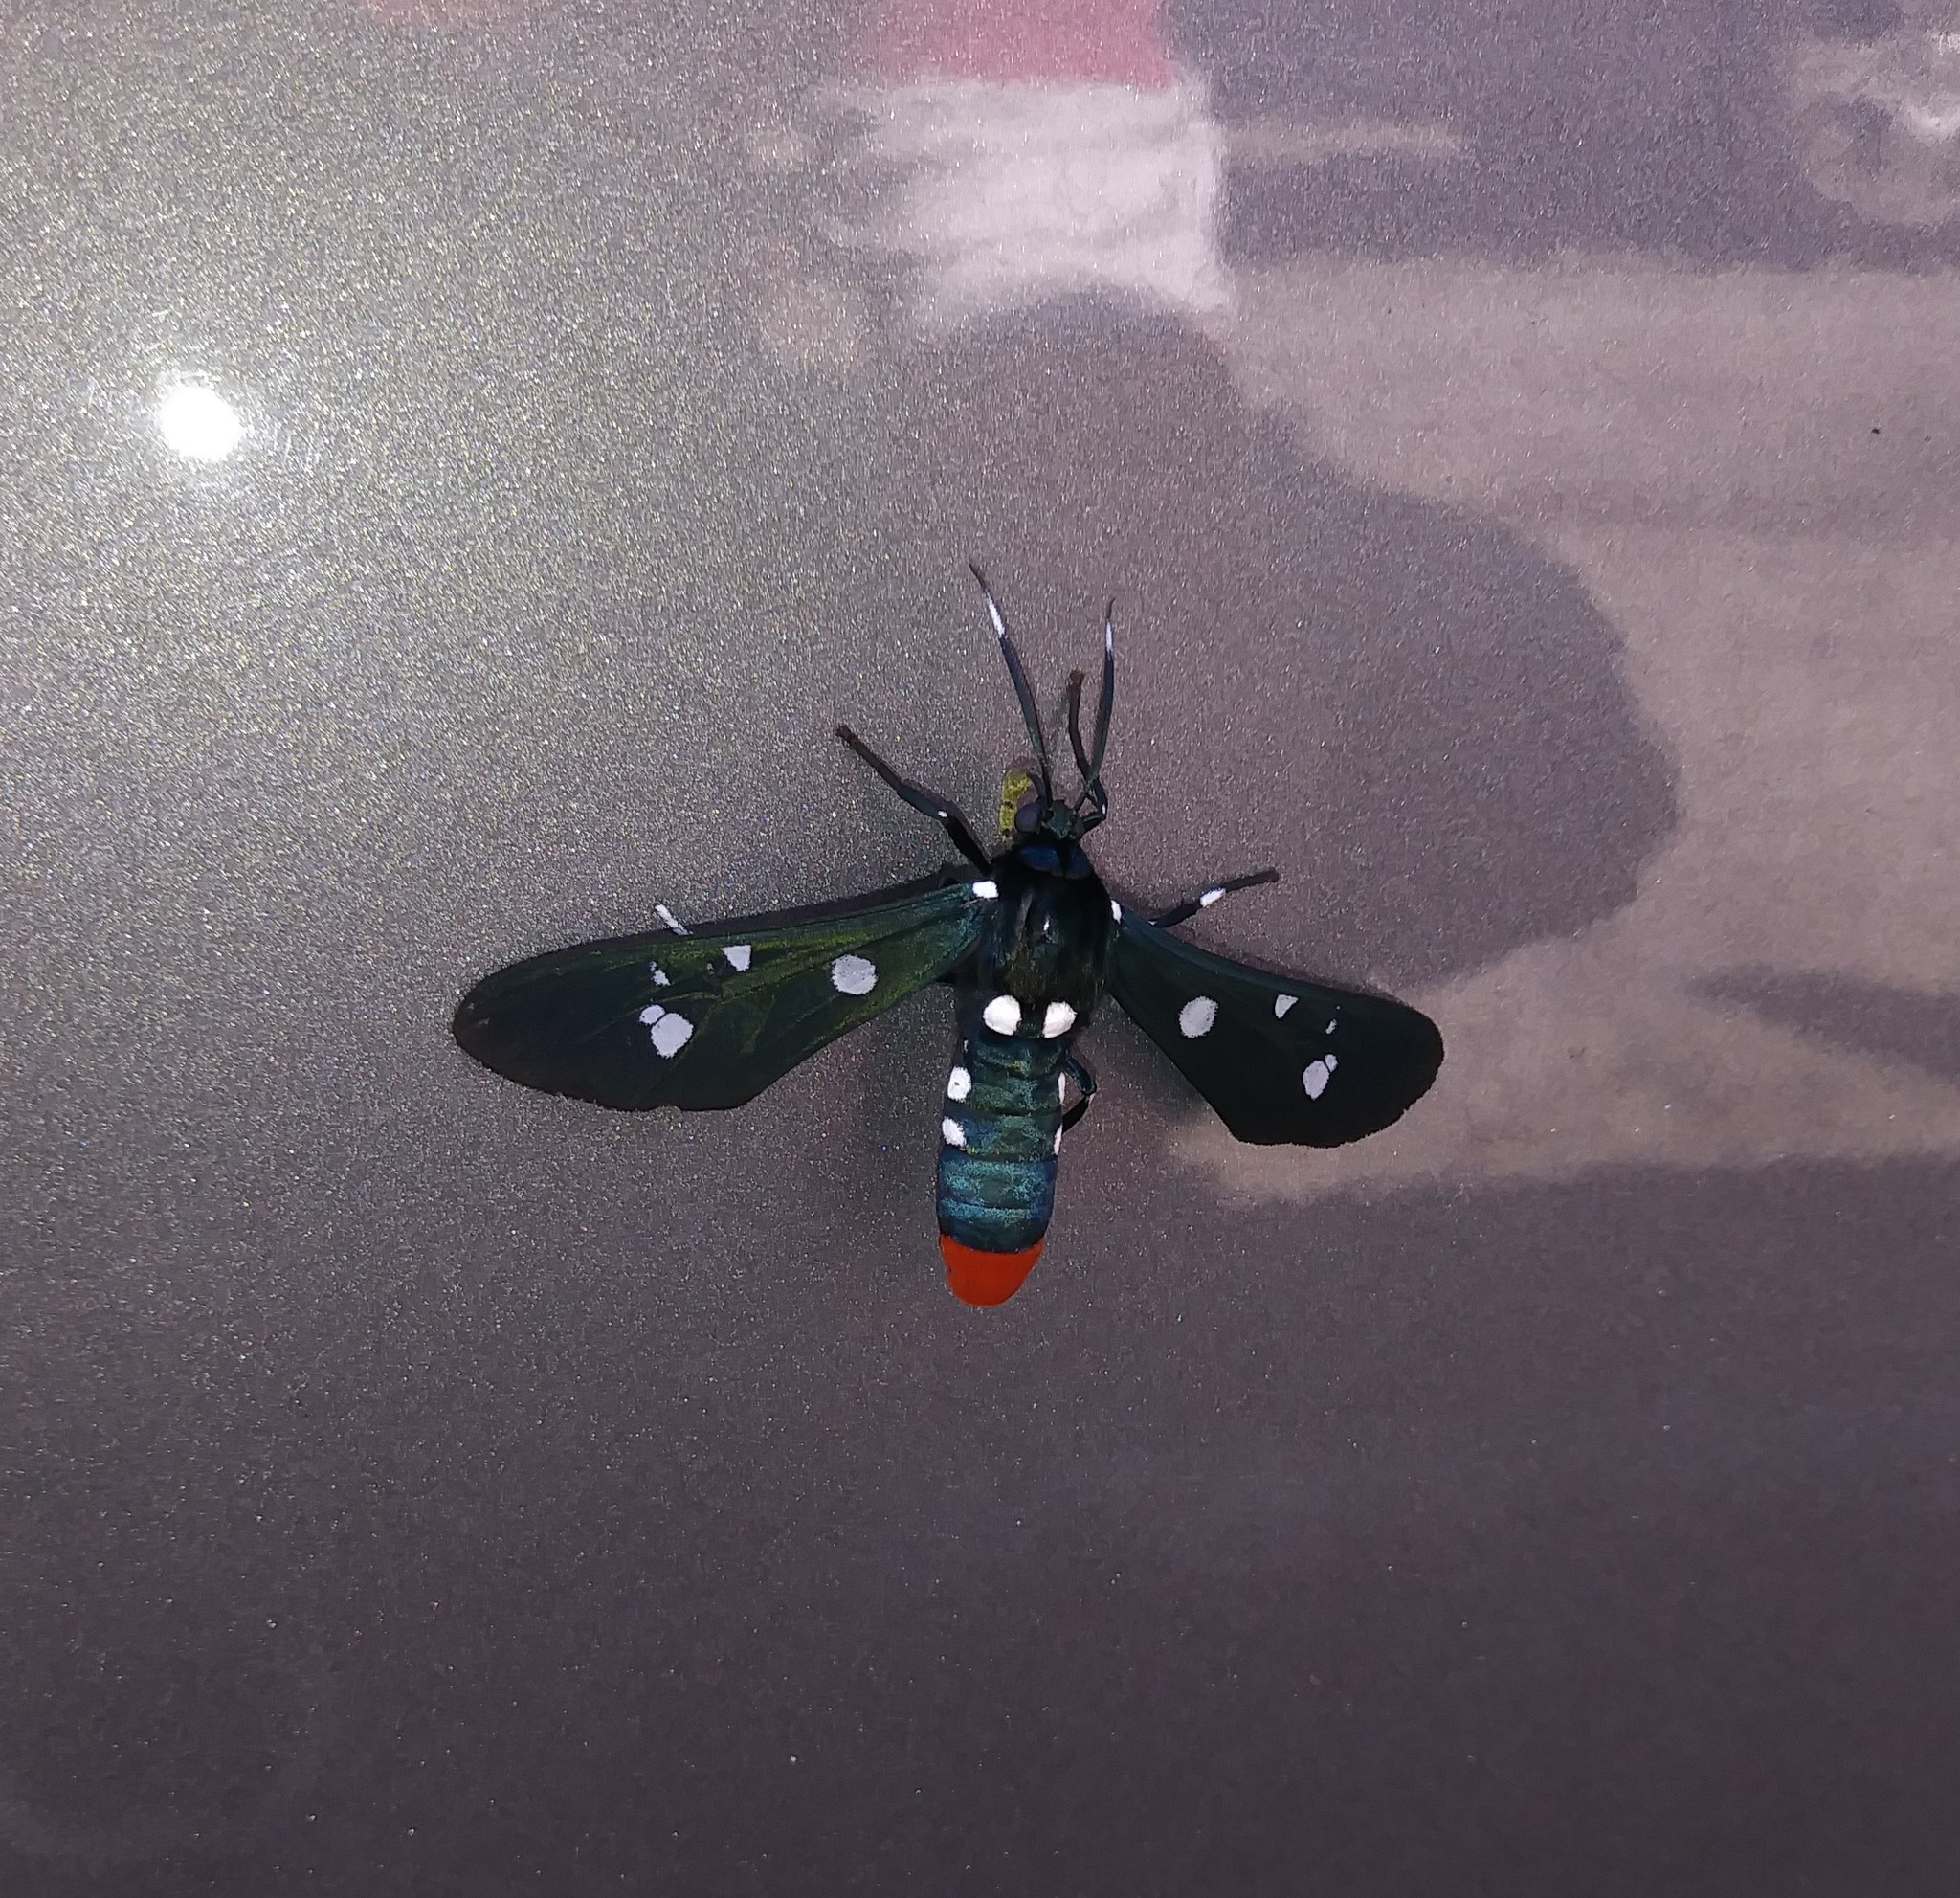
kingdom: Animalia
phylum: Arthropoda
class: Insecta
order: Lepidoptera
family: Erebidae
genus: Syntomeida
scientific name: Syntomeida epilais
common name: Polka-dot wasp moth
